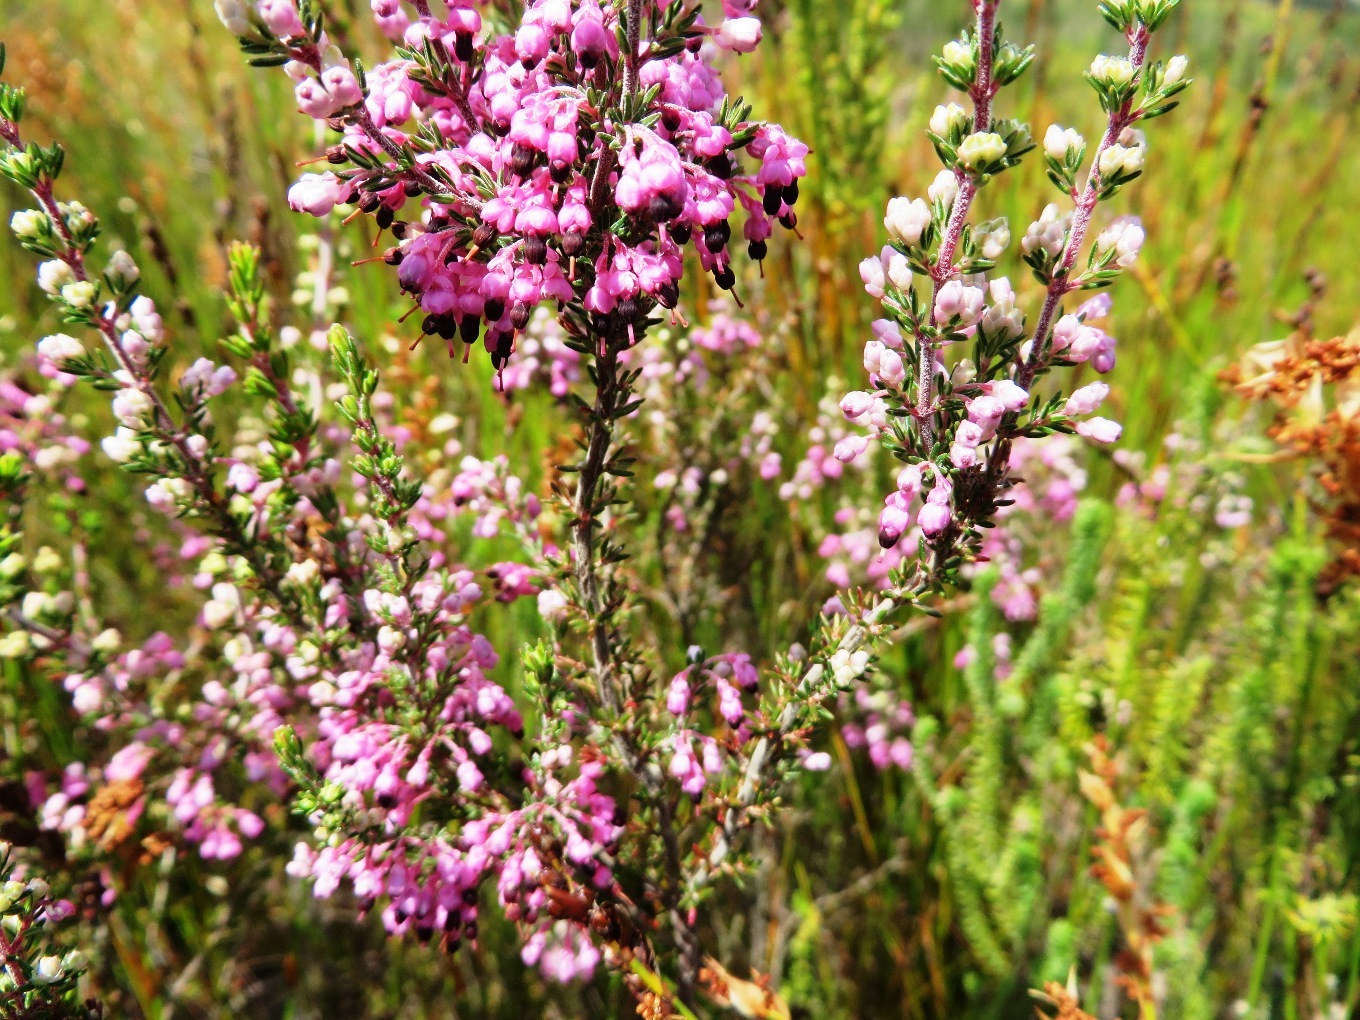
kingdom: Plantae
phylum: Tracheophyta
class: Magnoliopsida
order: Ericales
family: Ericaceae
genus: Erica
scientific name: Erica placentiflora
